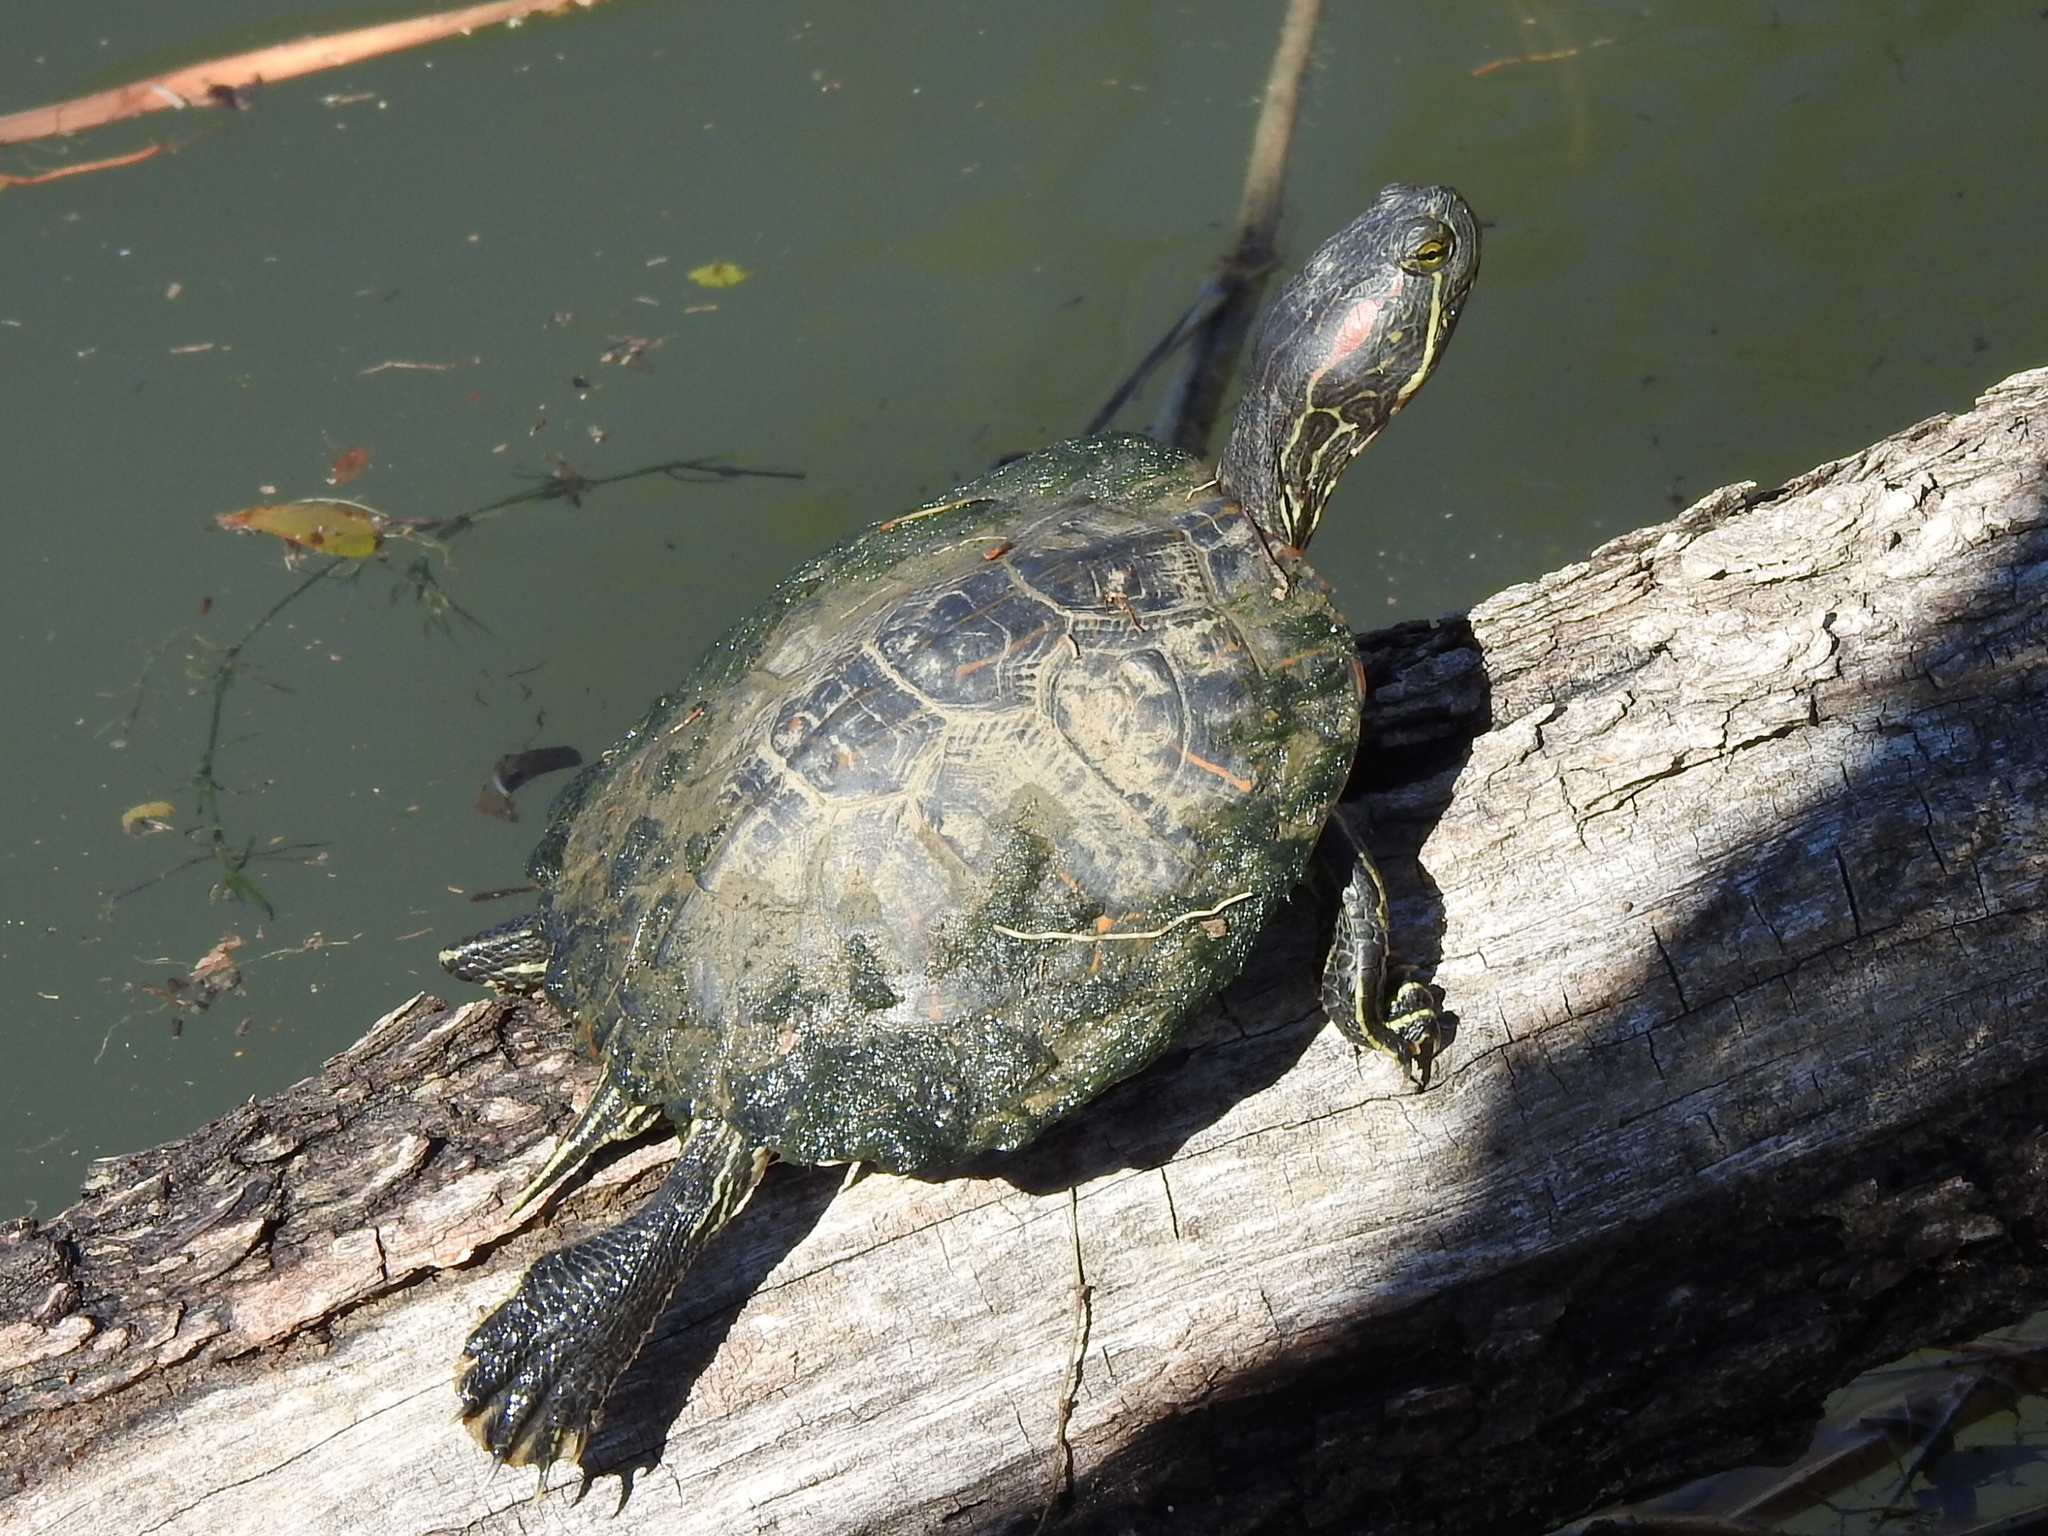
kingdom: Animalia
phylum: Chordata
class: Testudines
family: Emydidae
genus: Trachemys
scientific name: Trachemys scripta
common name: Slider
